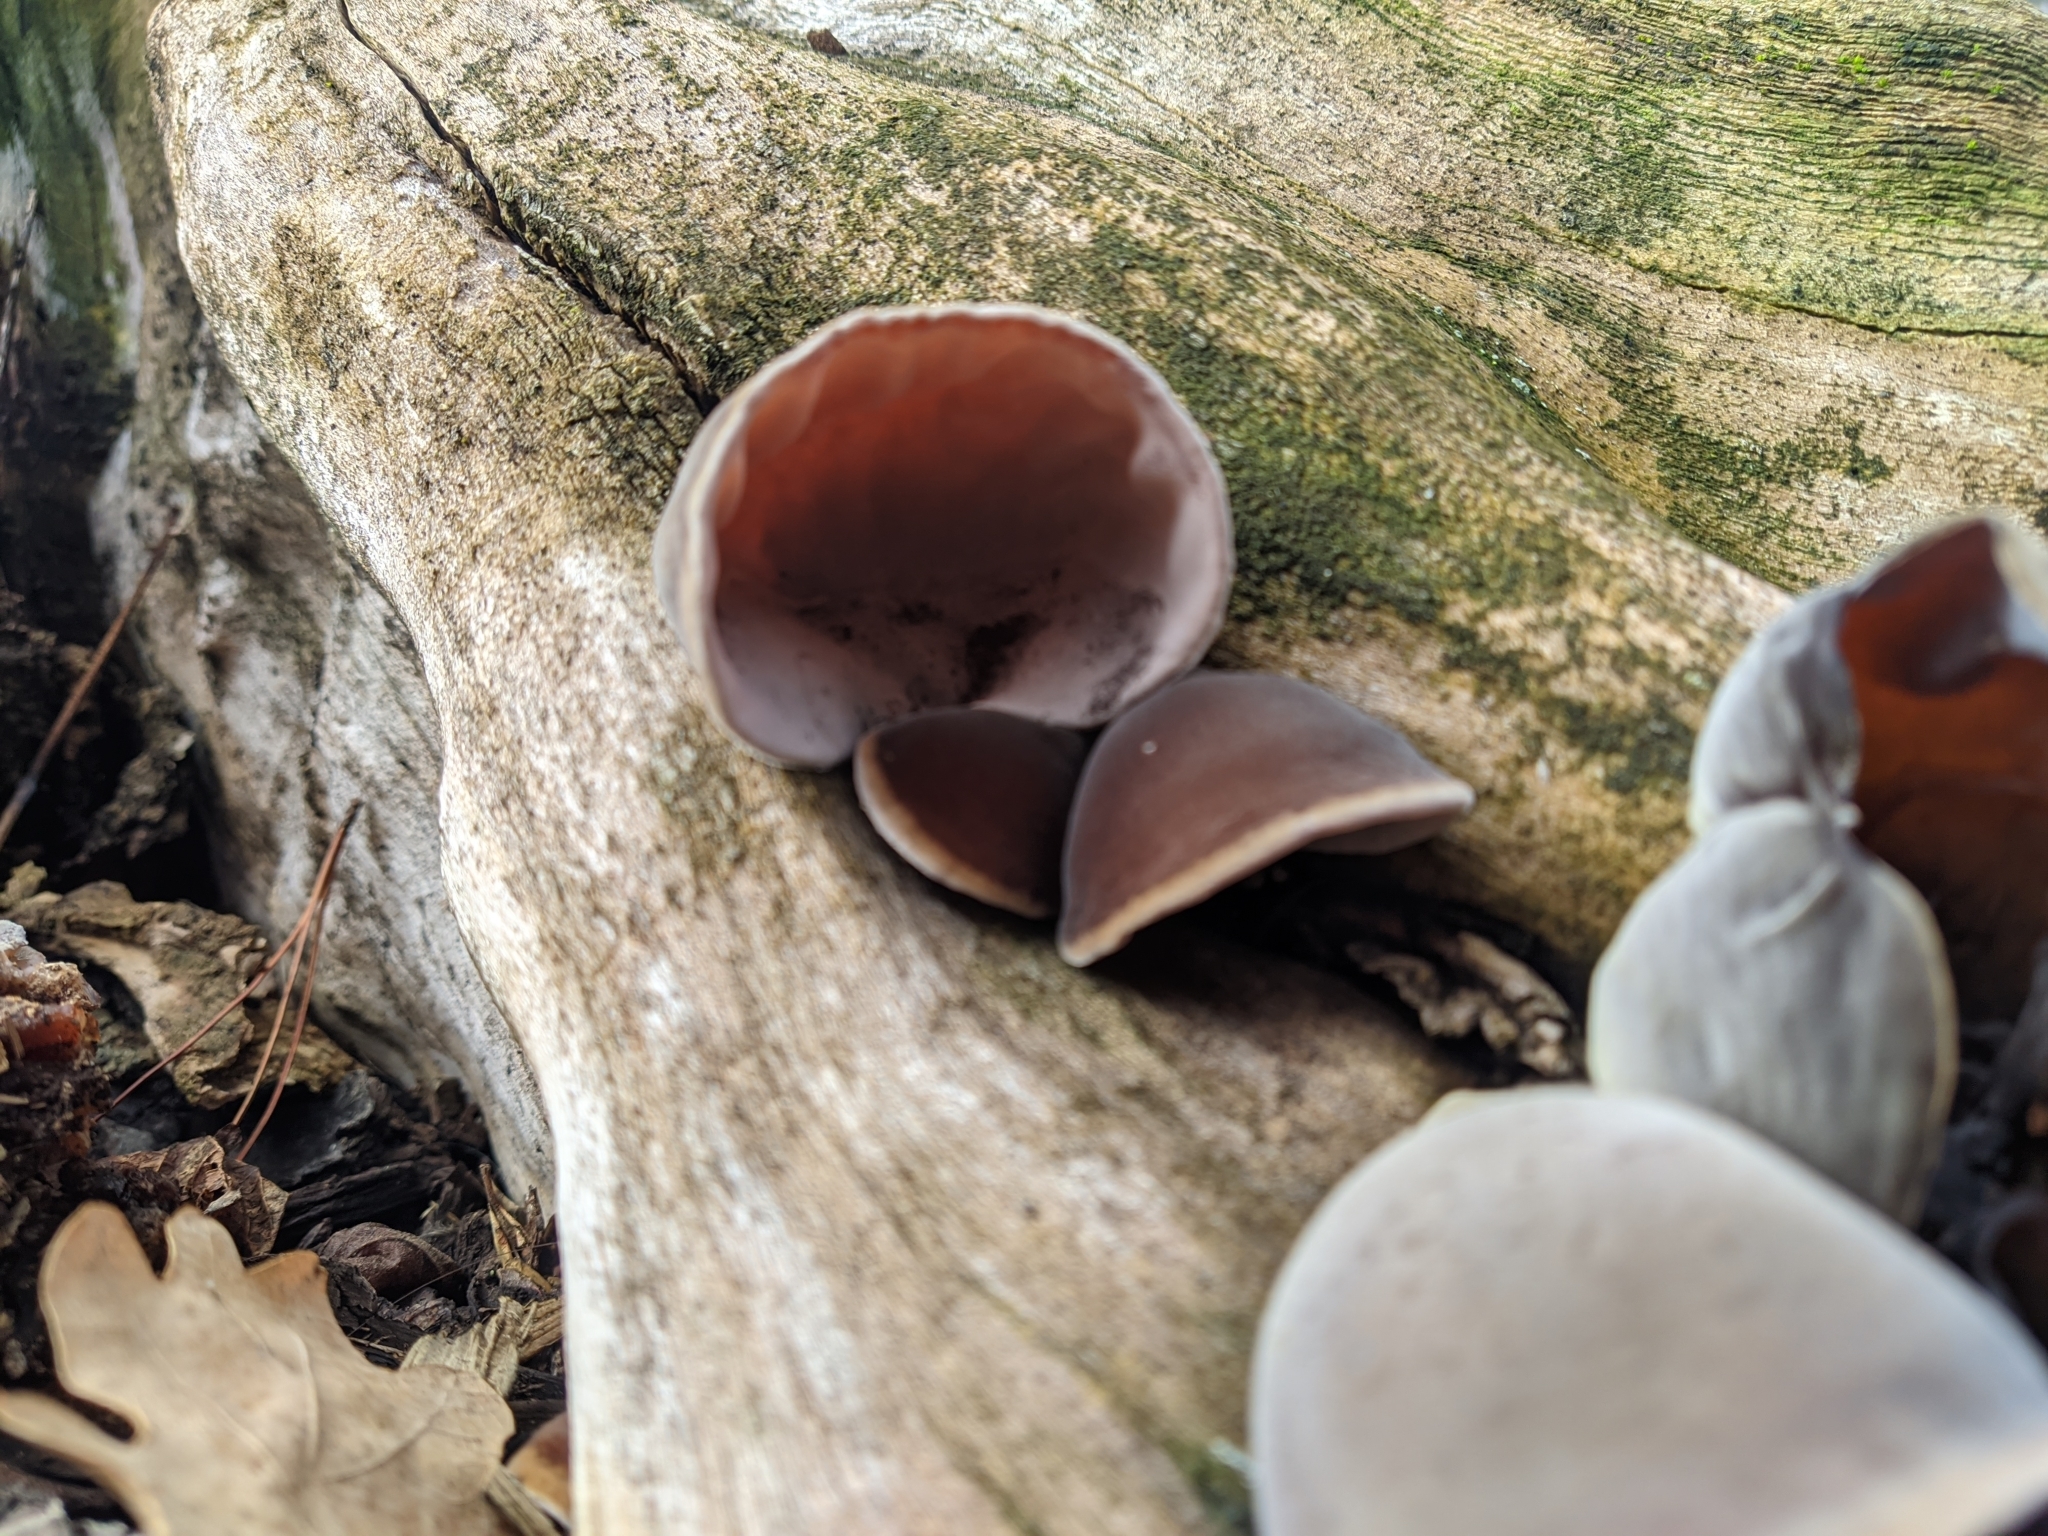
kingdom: Fungi
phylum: Basidiomycota
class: Agaricomycetes
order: Auriculariales
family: Auriculariaceae
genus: Auricularia
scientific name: Auricularia cornea
